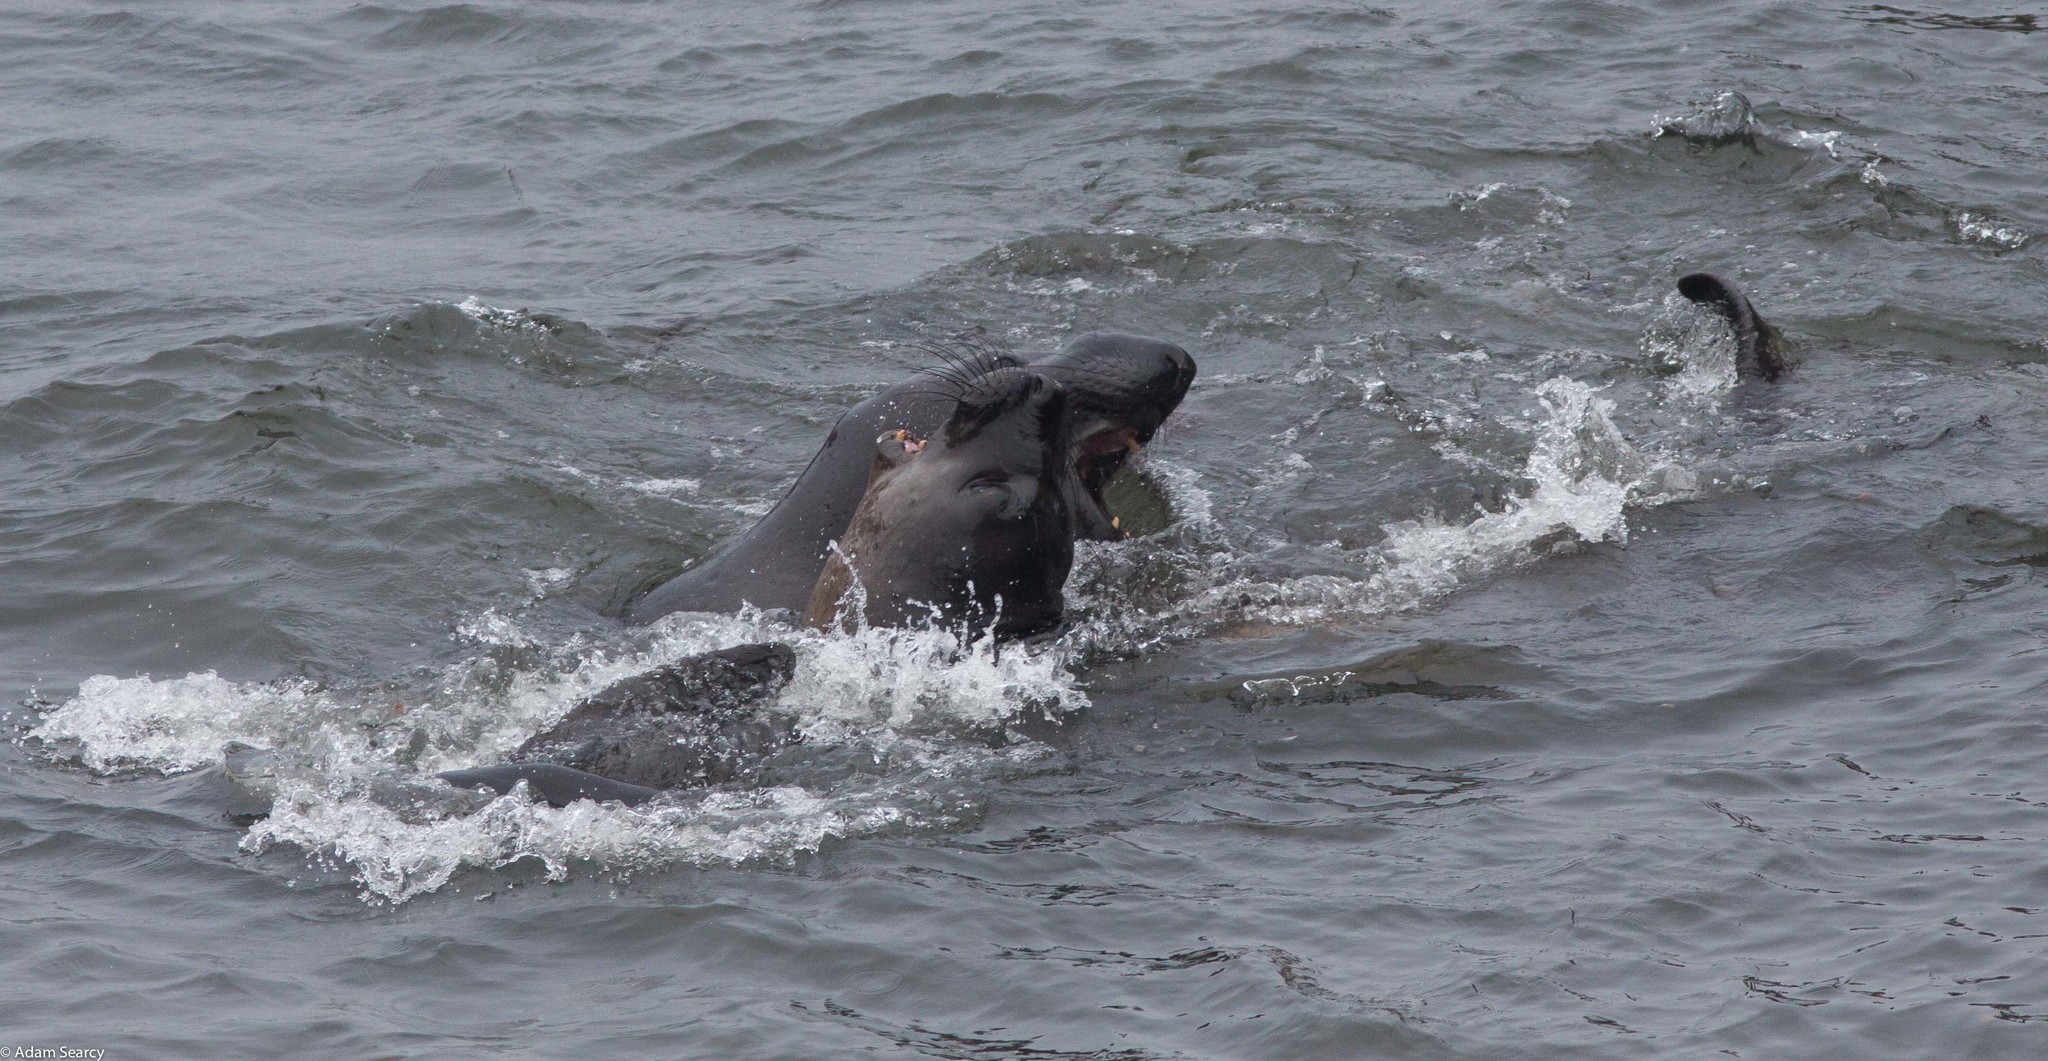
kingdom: Animalia
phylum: Chordata
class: Mammalia
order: Carnivora
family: Phocidae
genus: Mirounga
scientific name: Mirounga angustirostris
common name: Northern elephant seal
